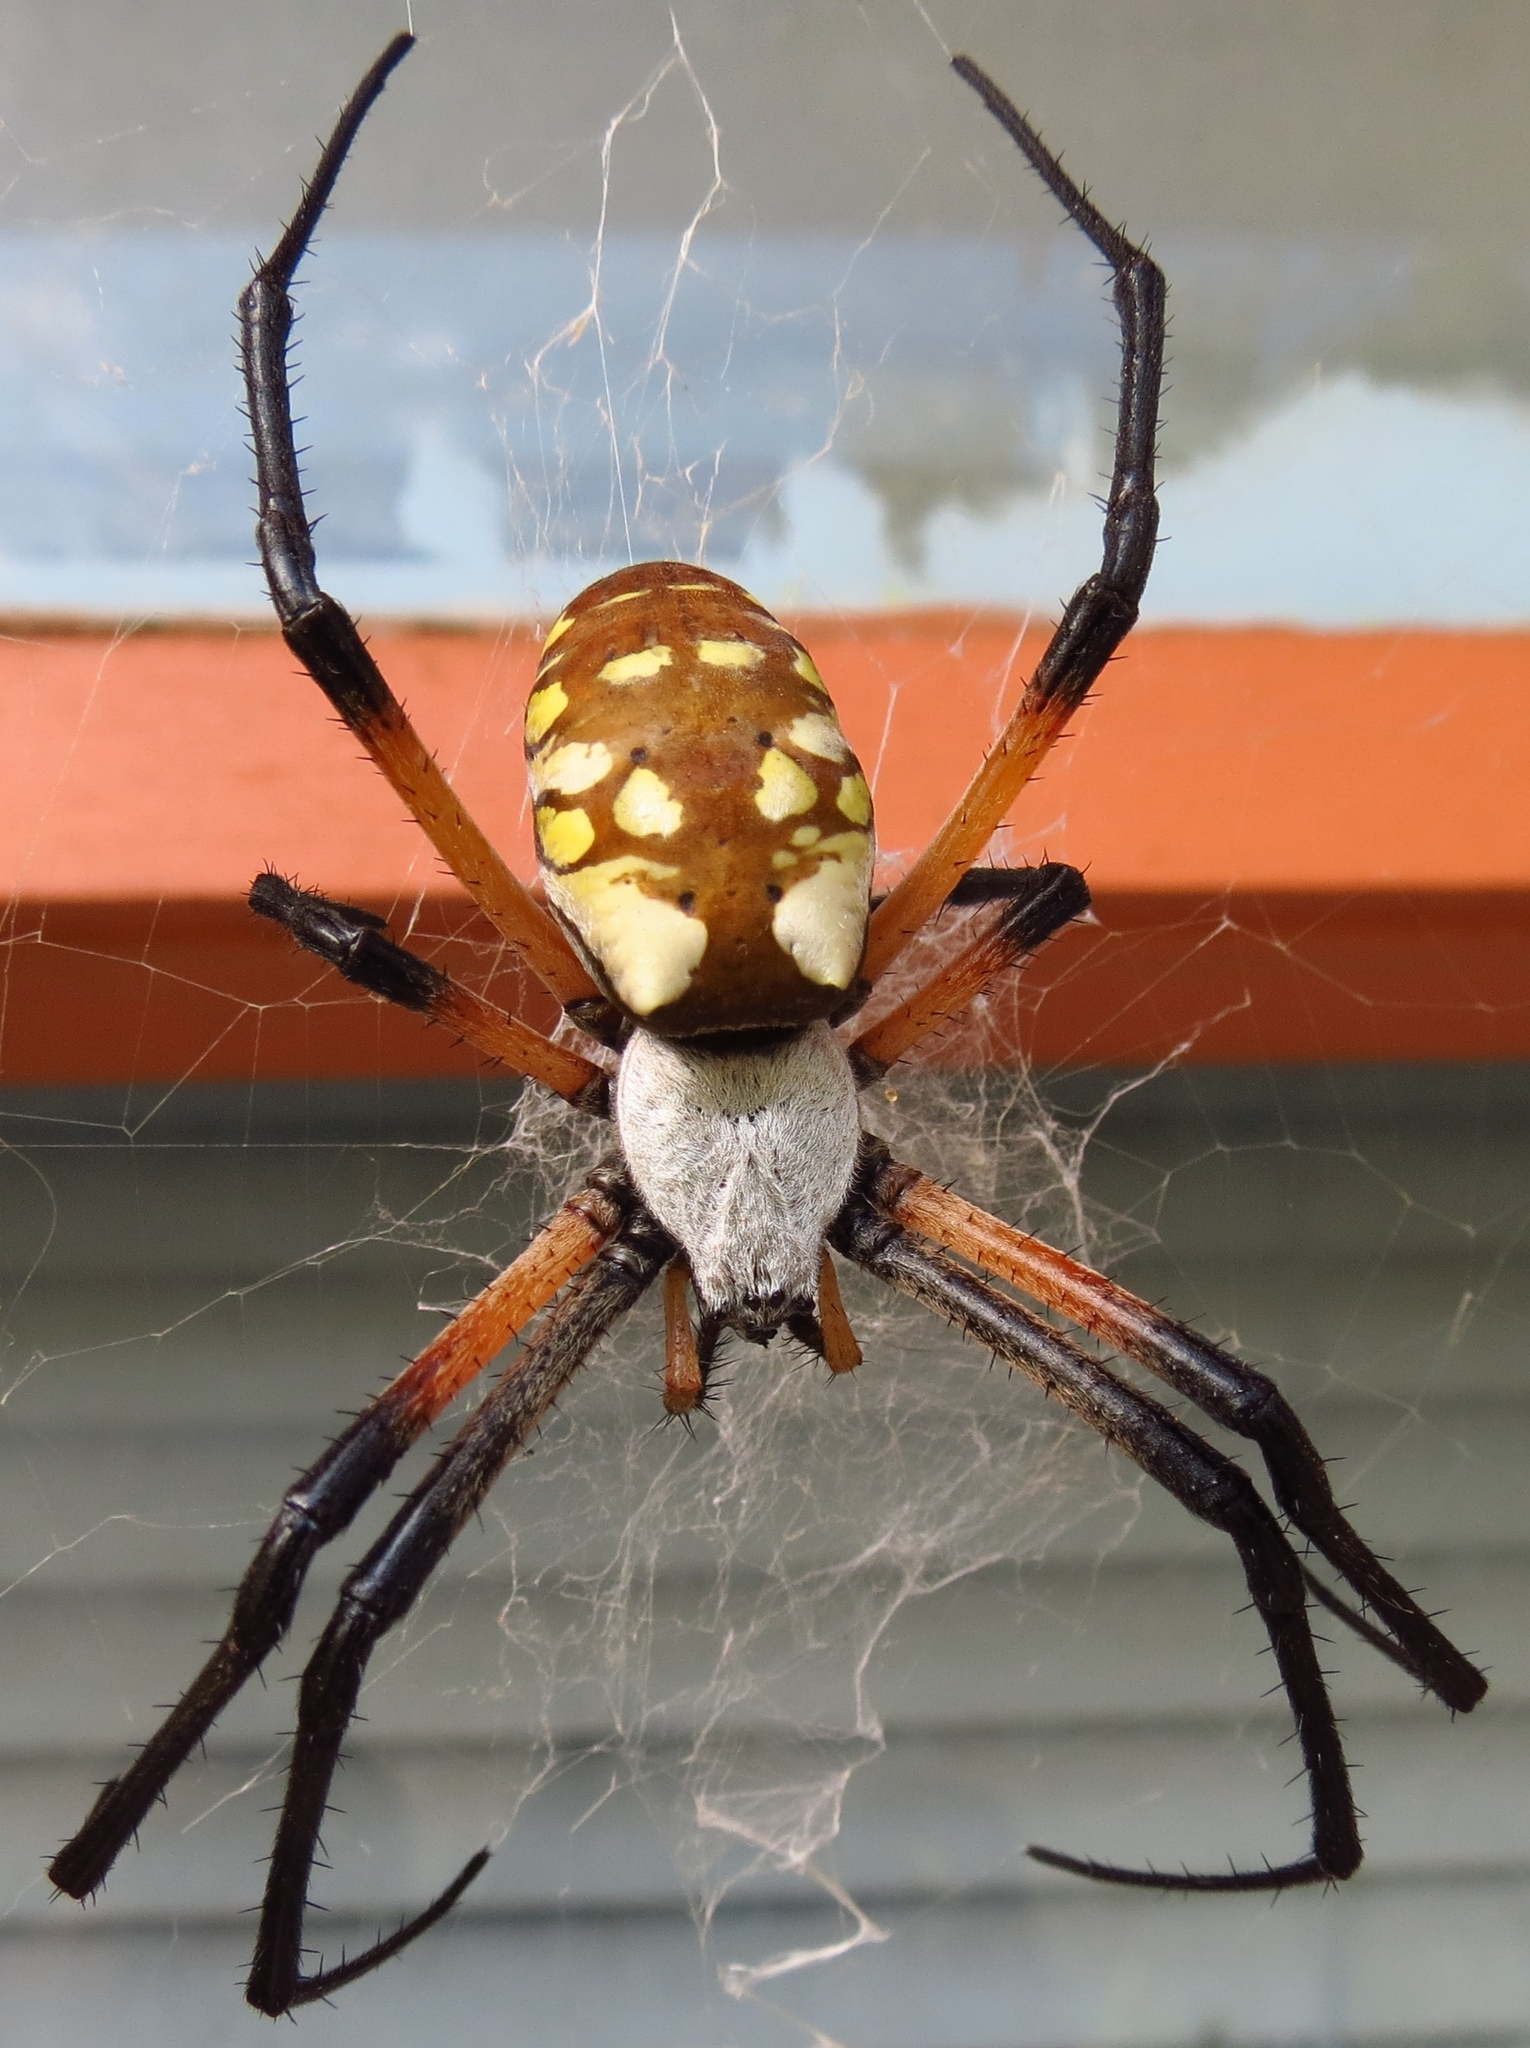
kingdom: Animalia
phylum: Arthropoda
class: Arachnida
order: Araneae
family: Araneidae
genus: Argiope
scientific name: Argiope aurantia
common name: Orb weavers
